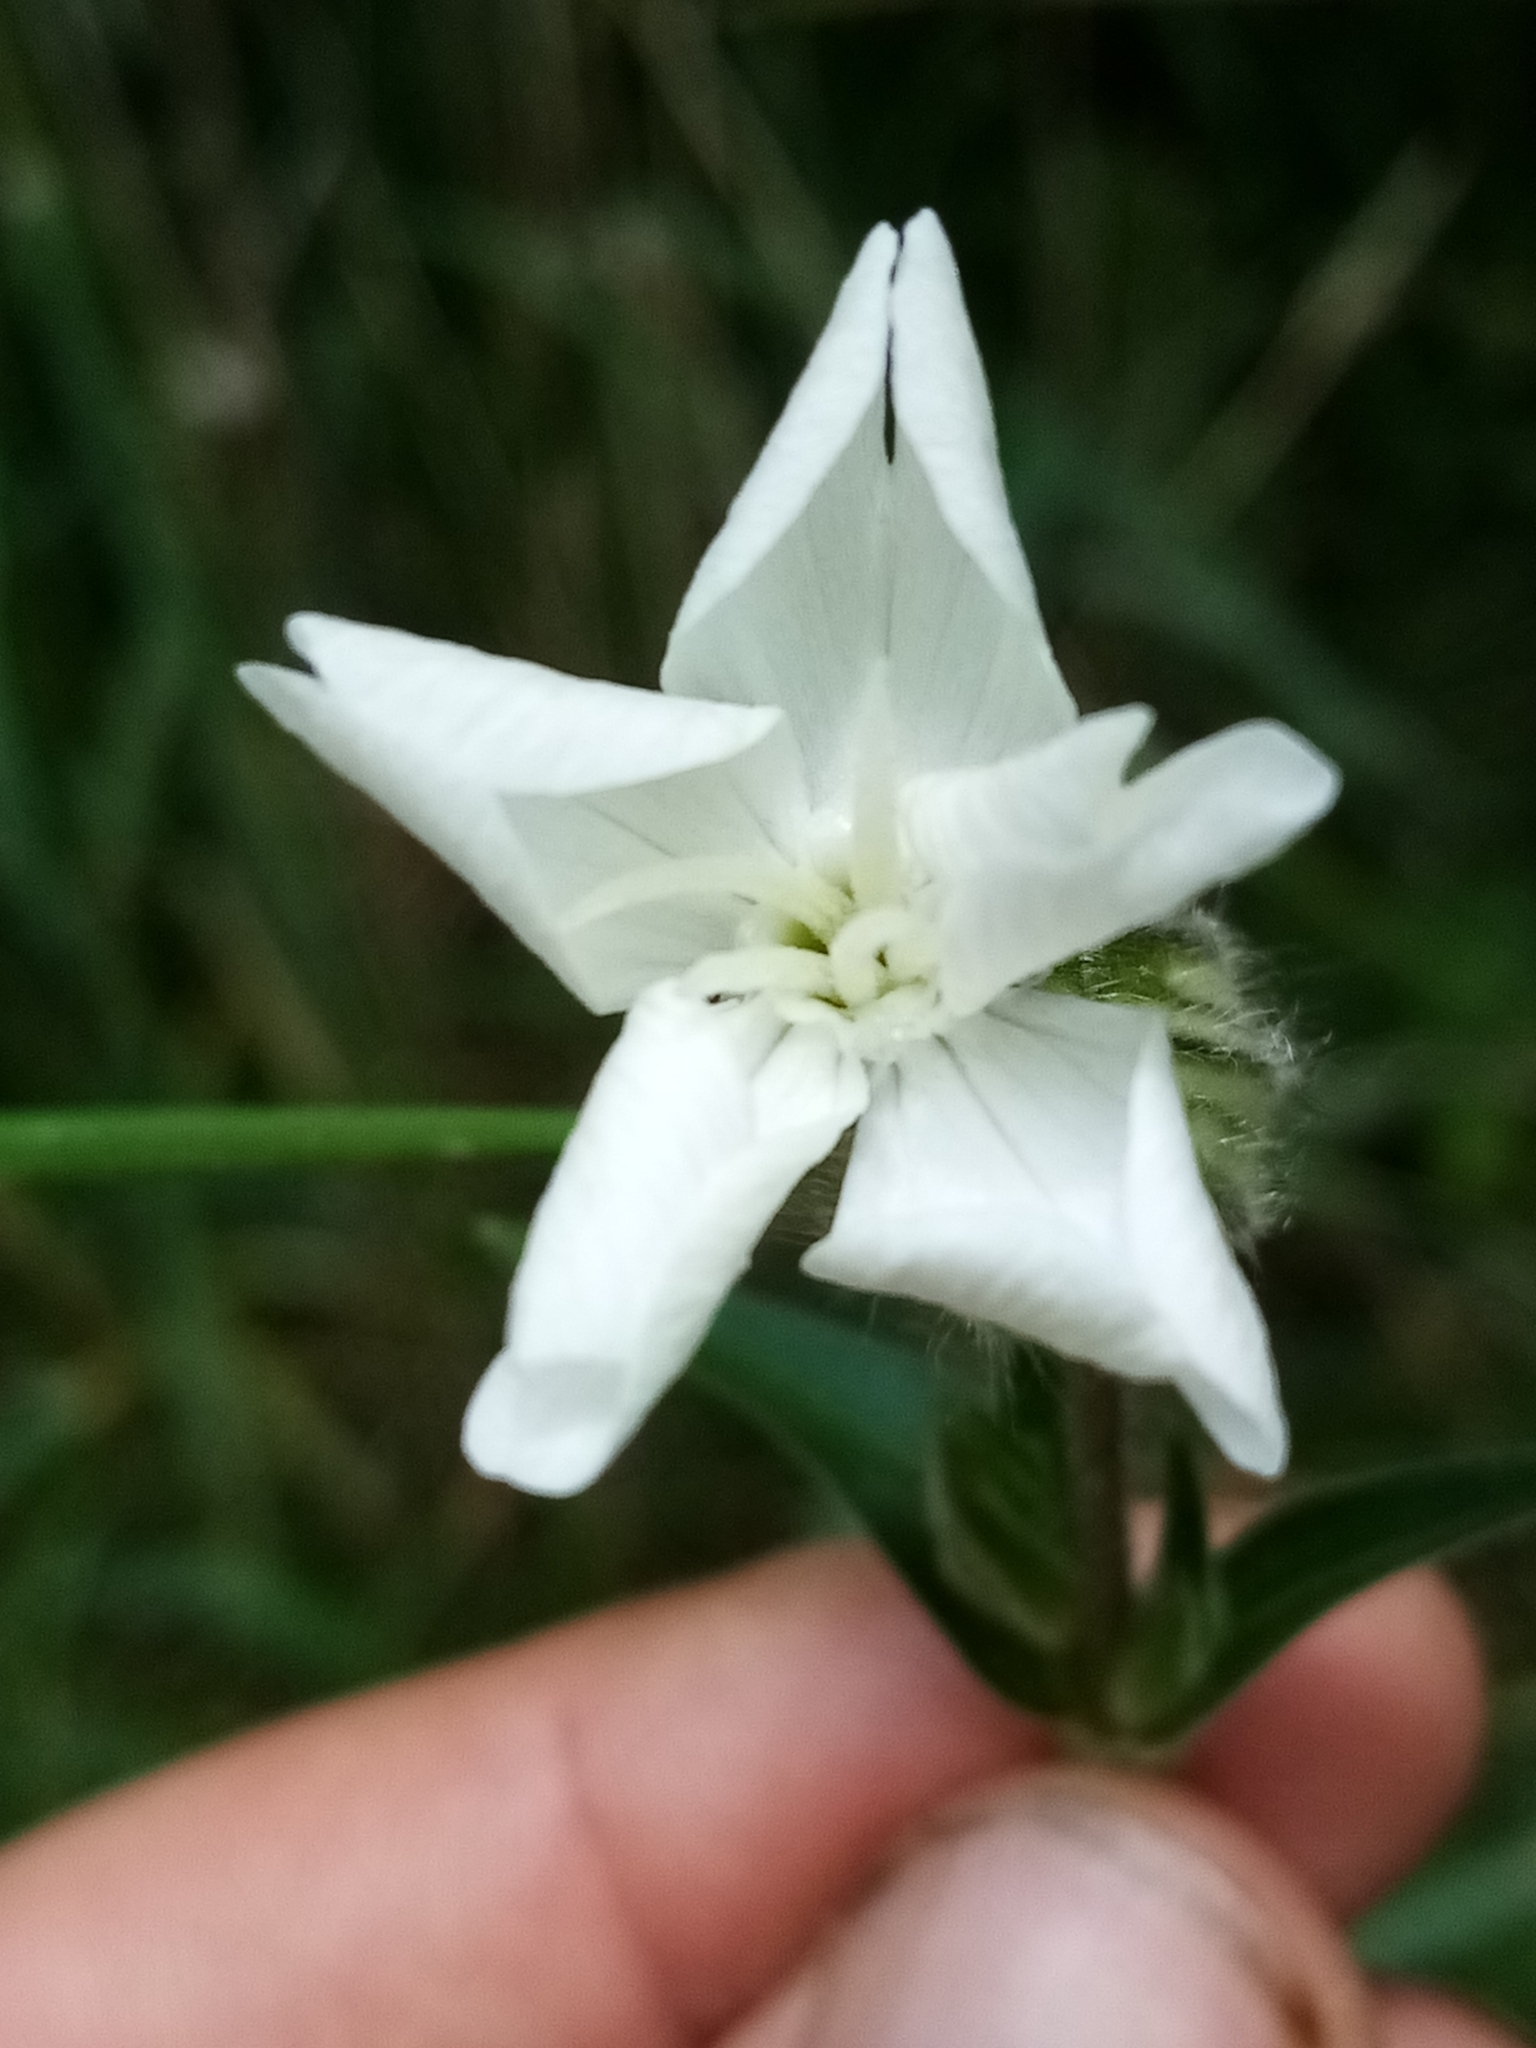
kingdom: Plantae
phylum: Tracheophyta
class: Magnoliopsida
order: Caryophyllales
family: Caryophyllaceae
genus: Silene
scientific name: Silene latifolia
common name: White campion
